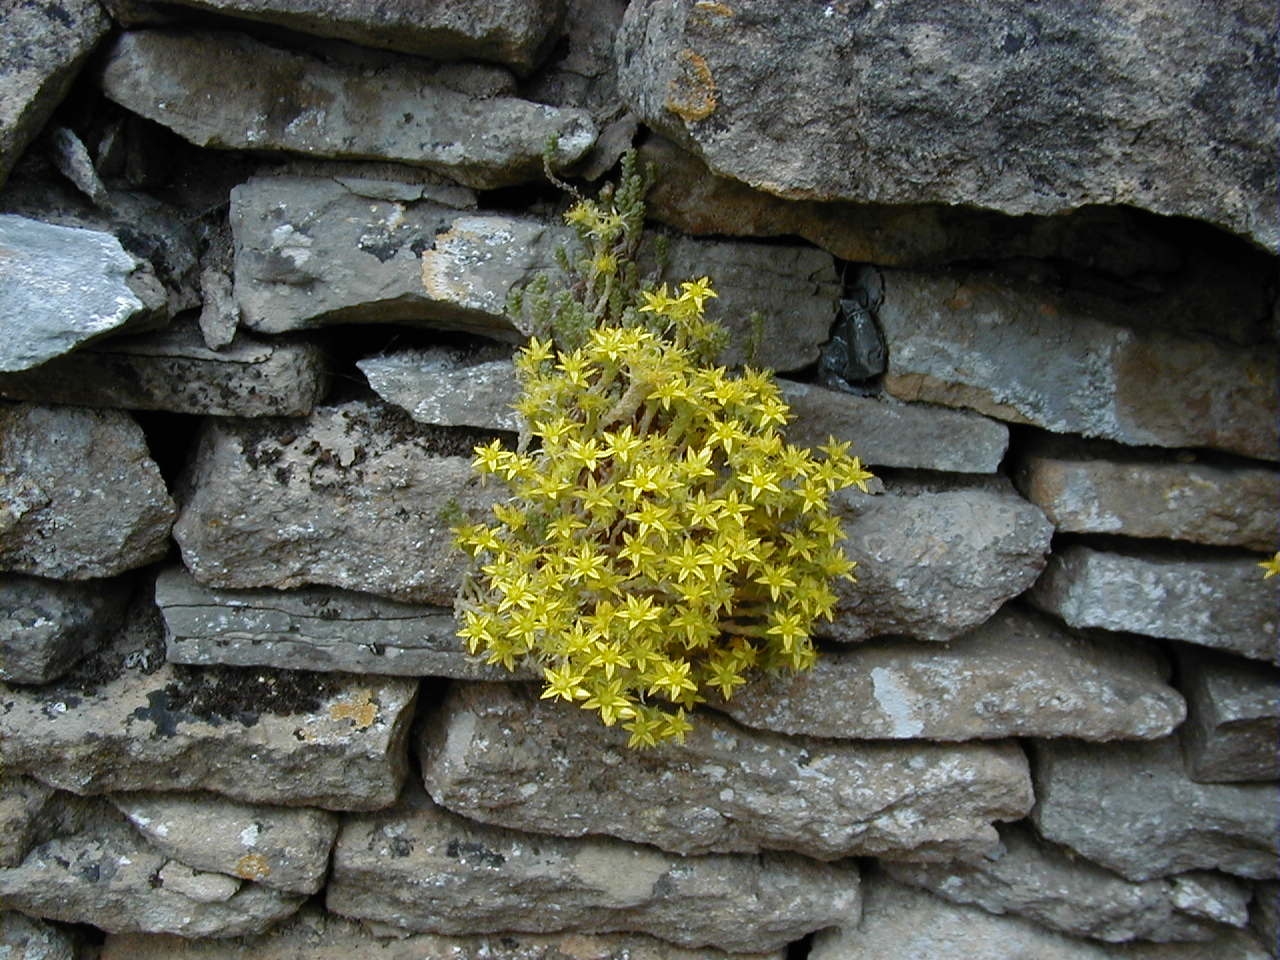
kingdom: Plantae
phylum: Tracheophyta
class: Magnoliopsida
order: Saxifragales
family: Crassulaceae
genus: Sedum
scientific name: Sedum acre
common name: Biting stonecrop
